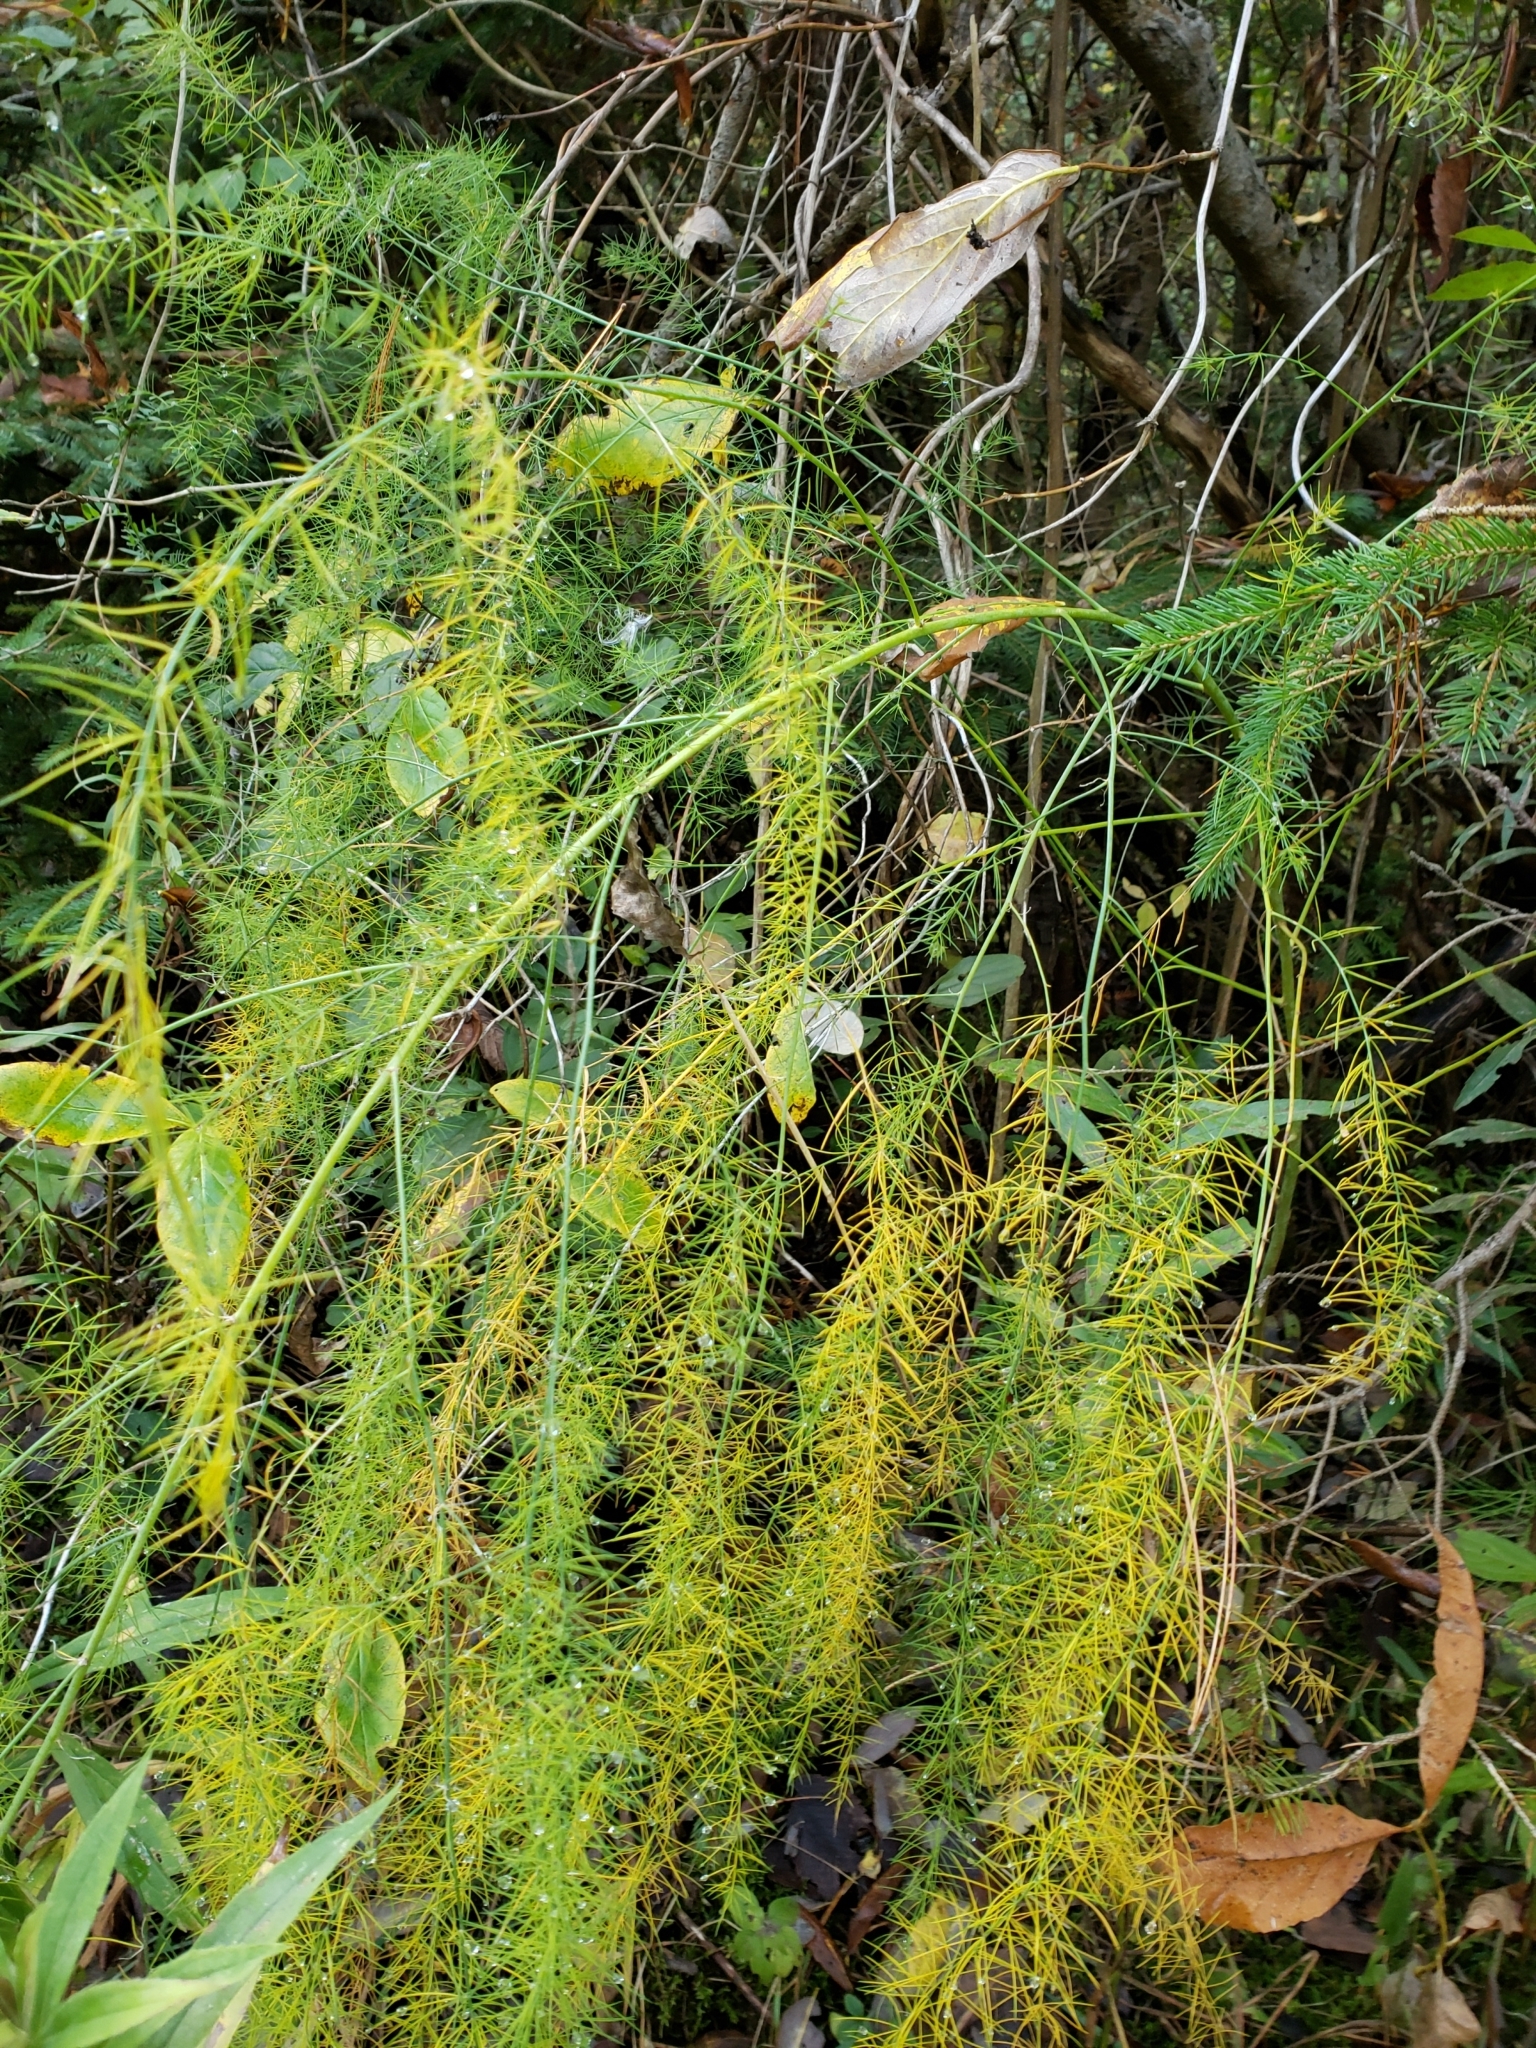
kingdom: Plantae
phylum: Tracheophyta
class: Liliopsida
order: Asparagales
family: Asparagaceae
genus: Asparagus
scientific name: Asparagus officinalis
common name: Garden asparagus
